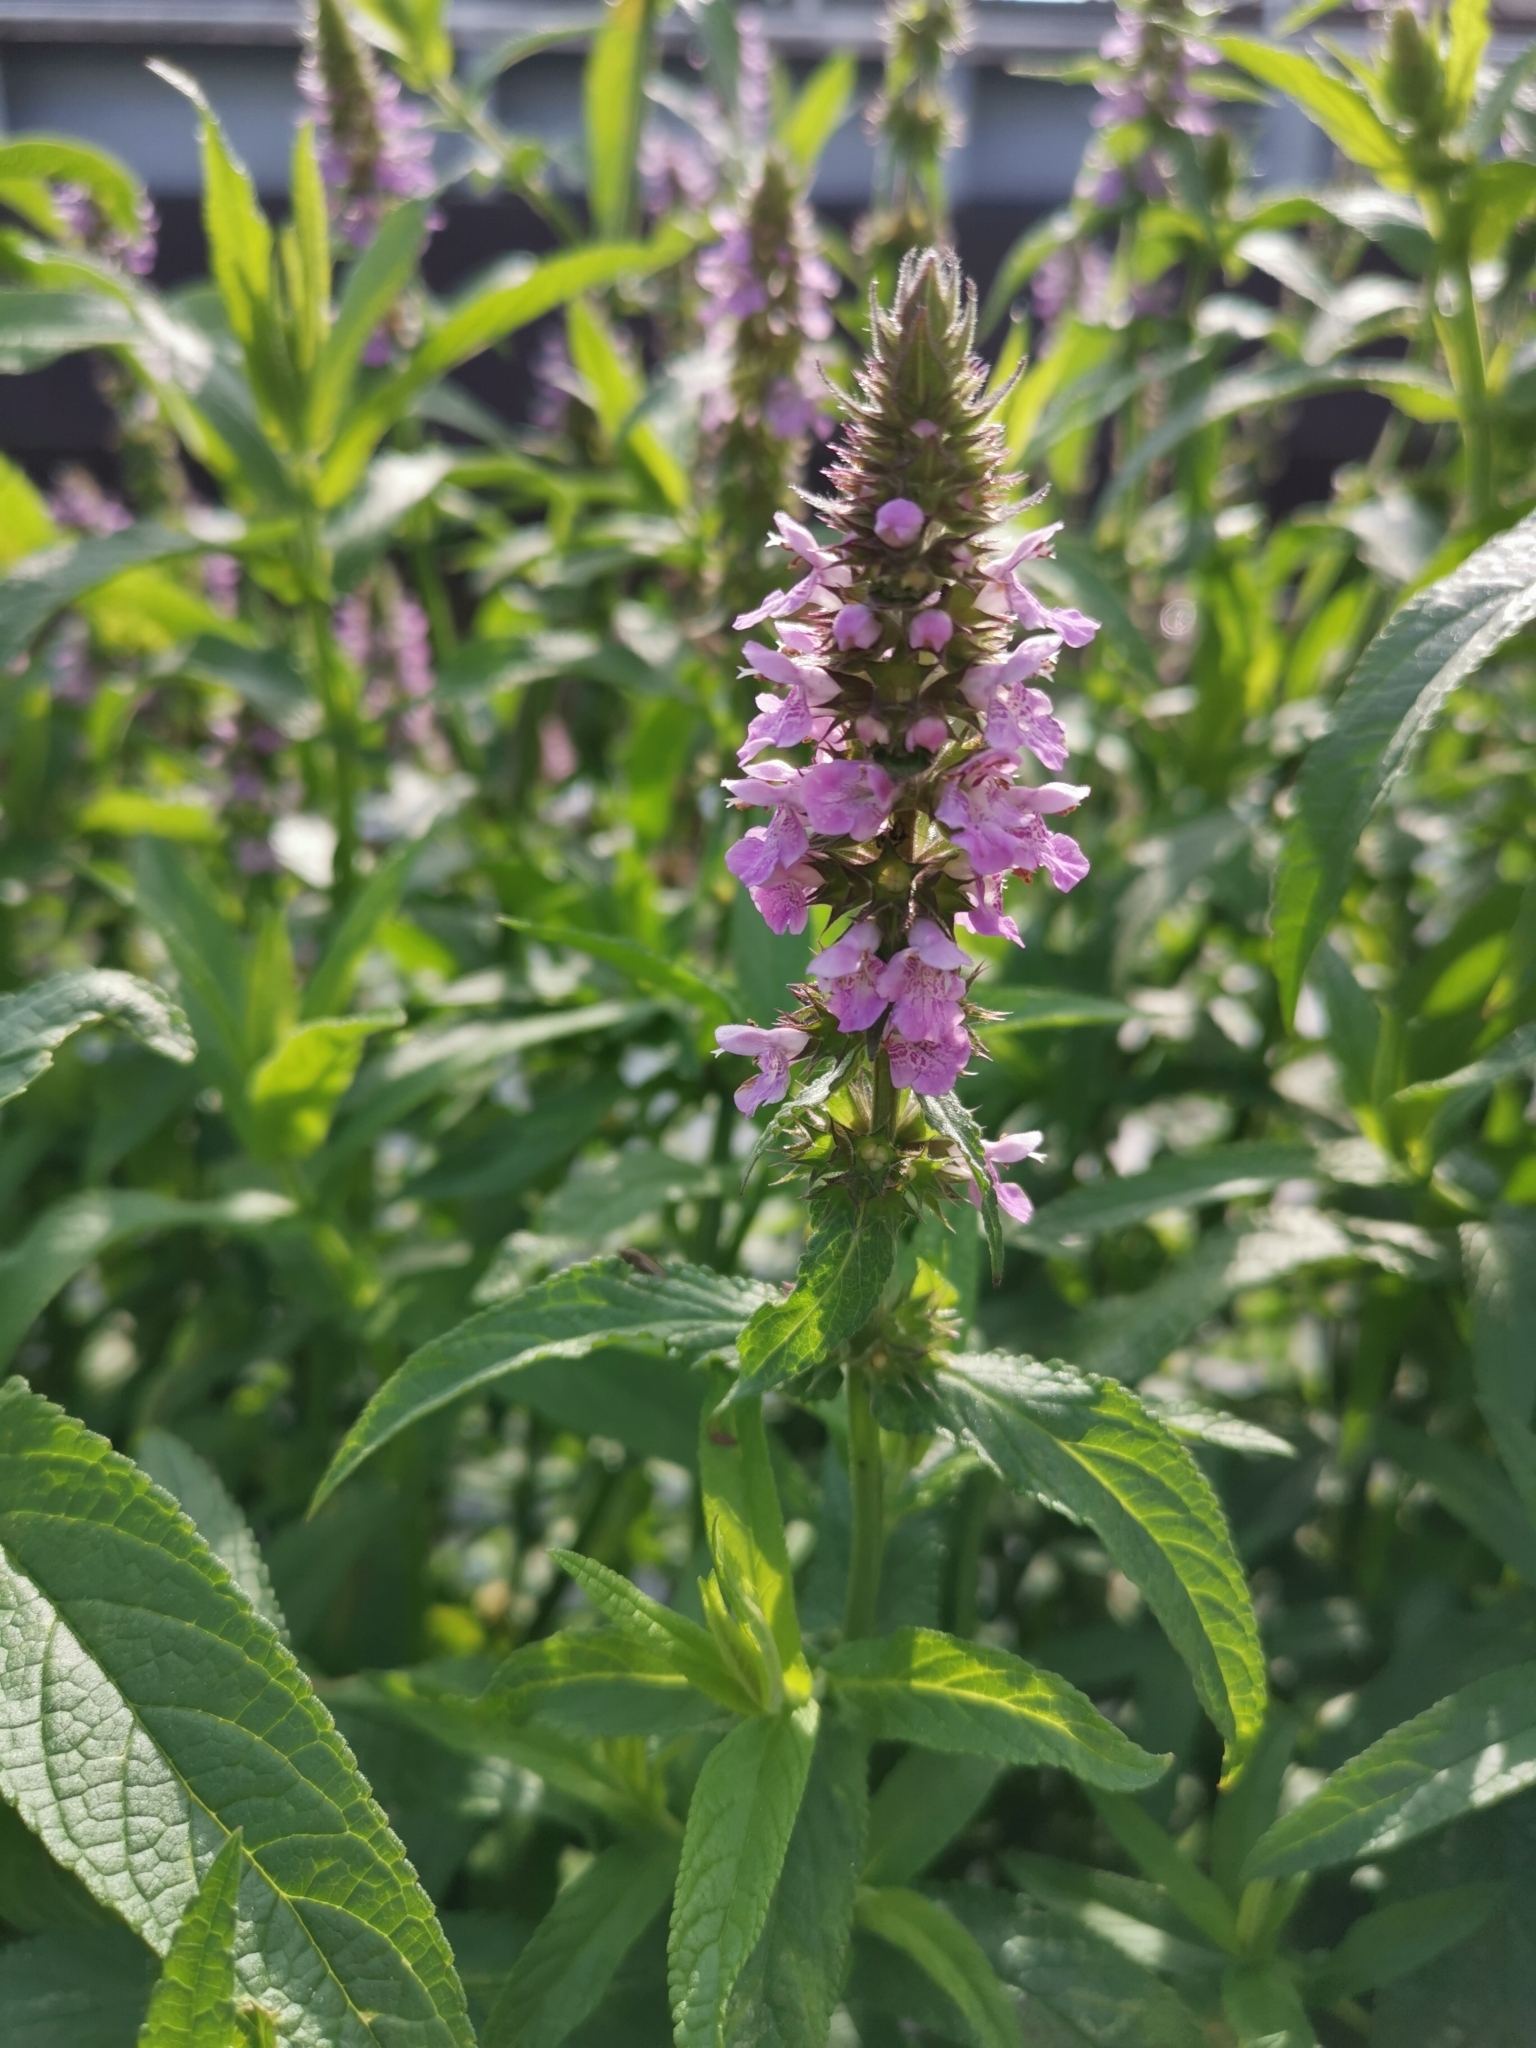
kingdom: Plantae
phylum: Tracheophyta
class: Magnoliopsida
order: Lamiales
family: Lamiaceae
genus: Stachys
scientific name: Stachys palustris
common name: Marsh woundwort
